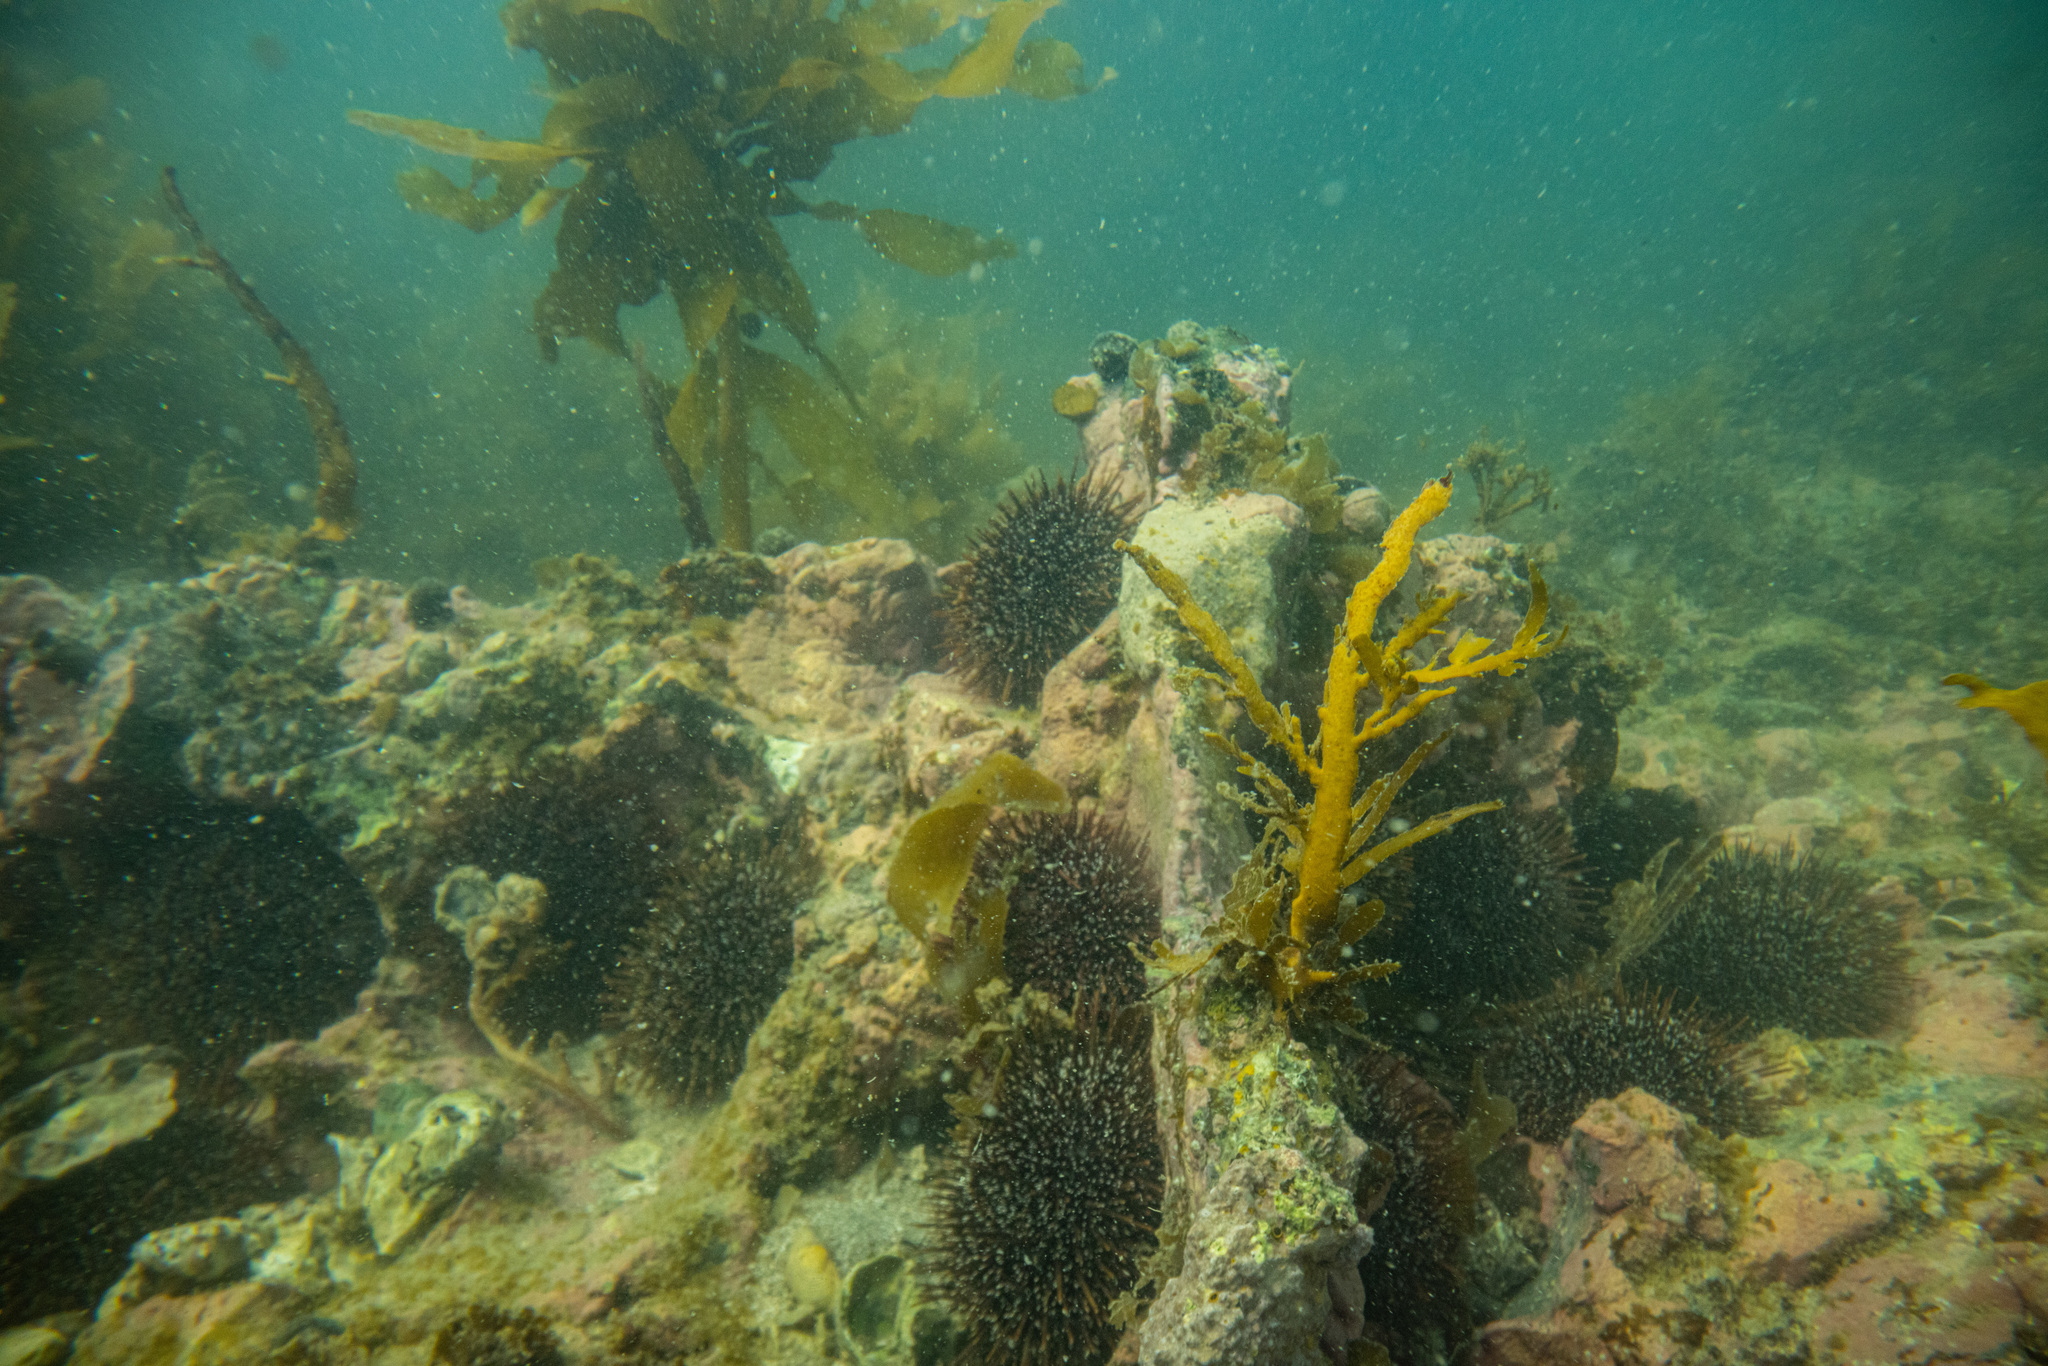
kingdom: Animalia
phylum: Echinodermata
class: Echinoidea
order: Camarodonta
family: Echinometridae
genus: Evechinus
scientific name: Evechinus chloroticus
